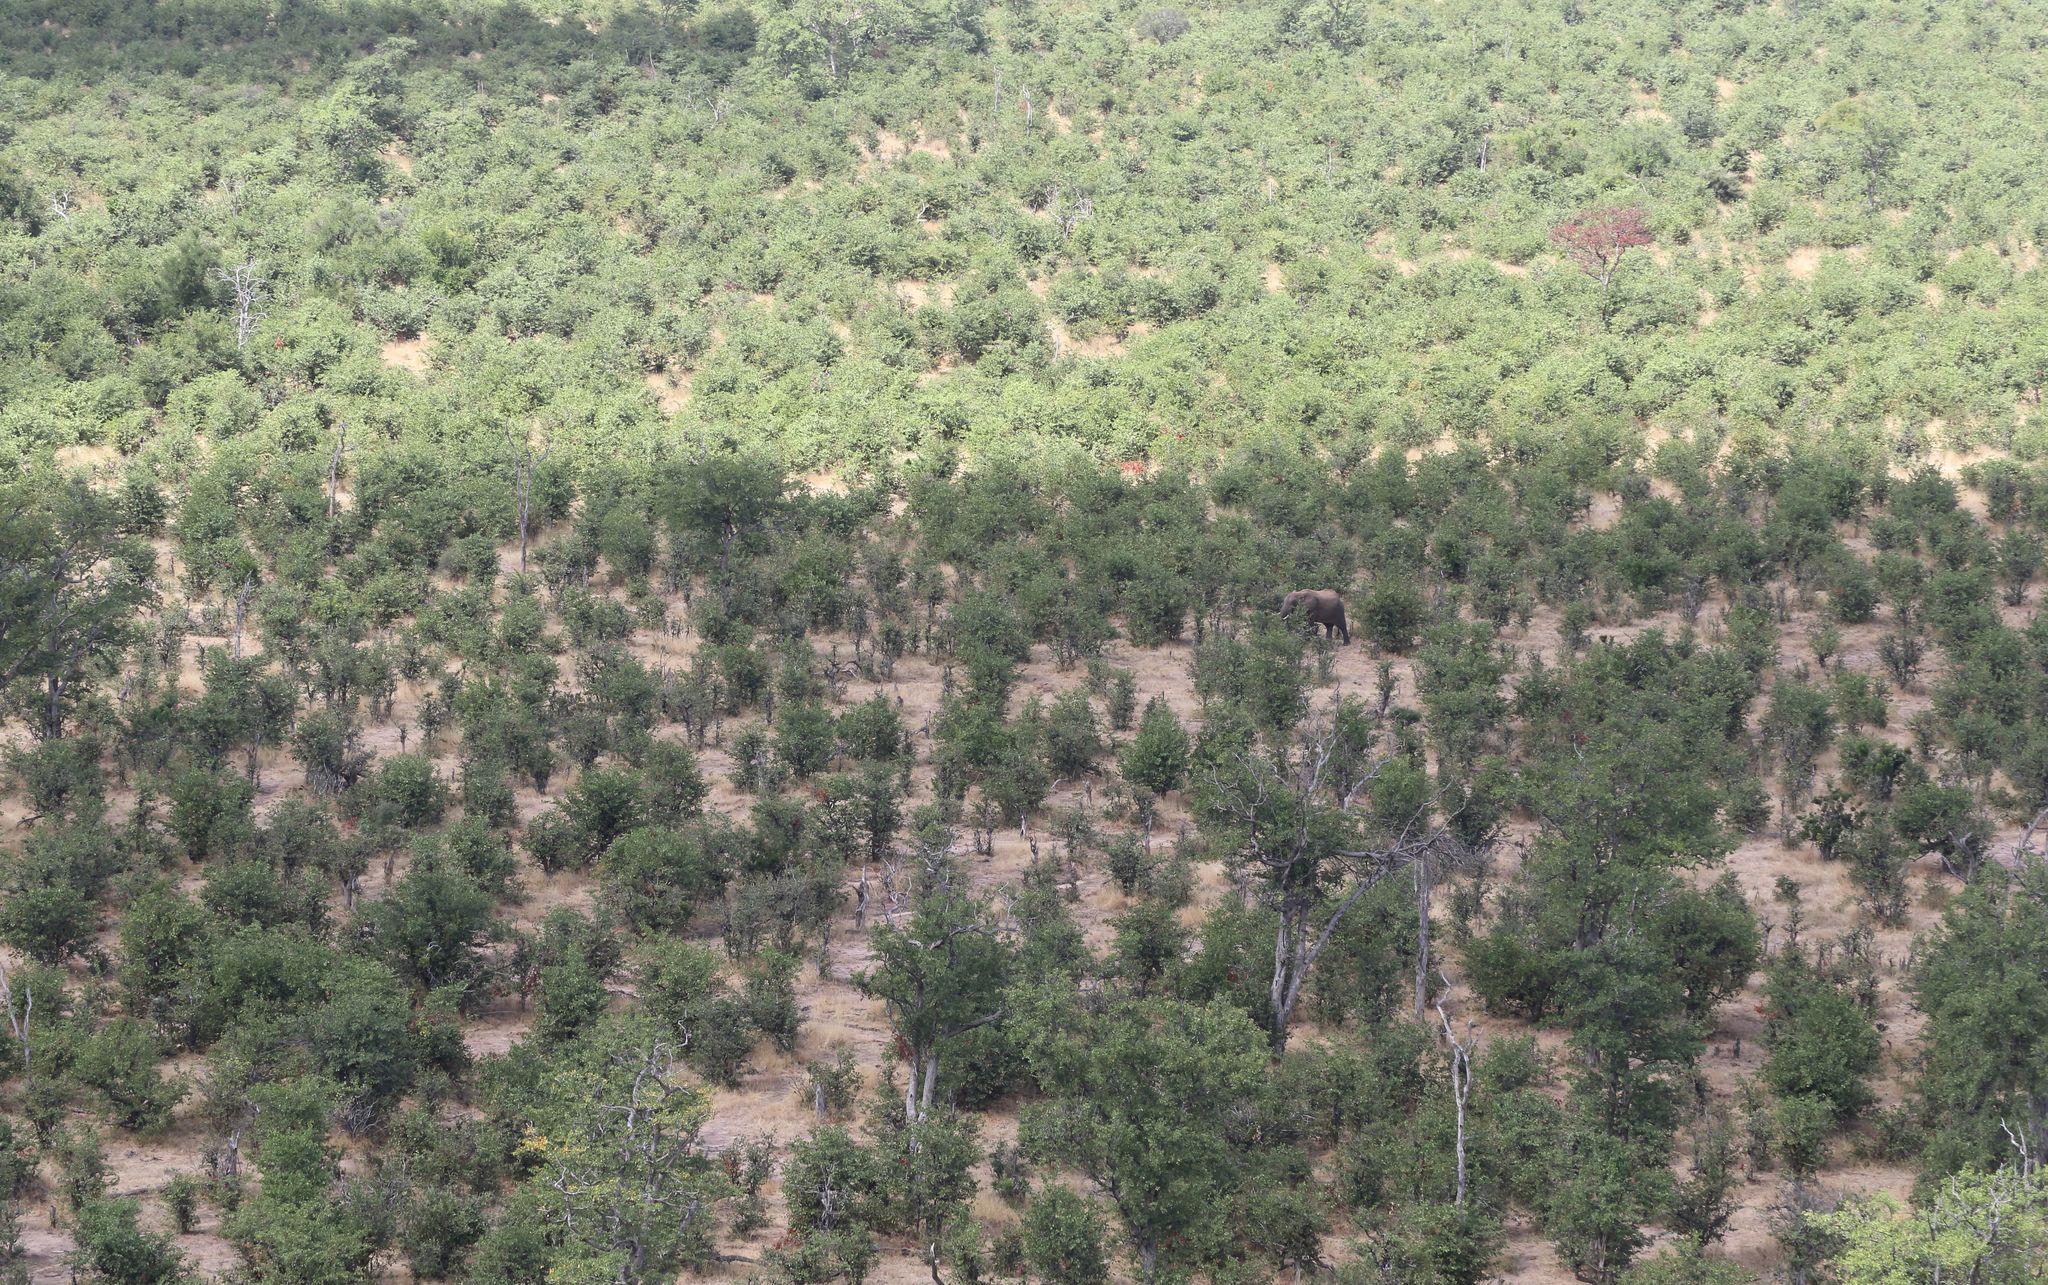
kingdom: Animalia
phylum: Chordata
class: Mammalia
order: Proboscidea
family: Elephantidae
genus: Loxodonta
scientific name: Loxodonta africana
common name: African elephant
